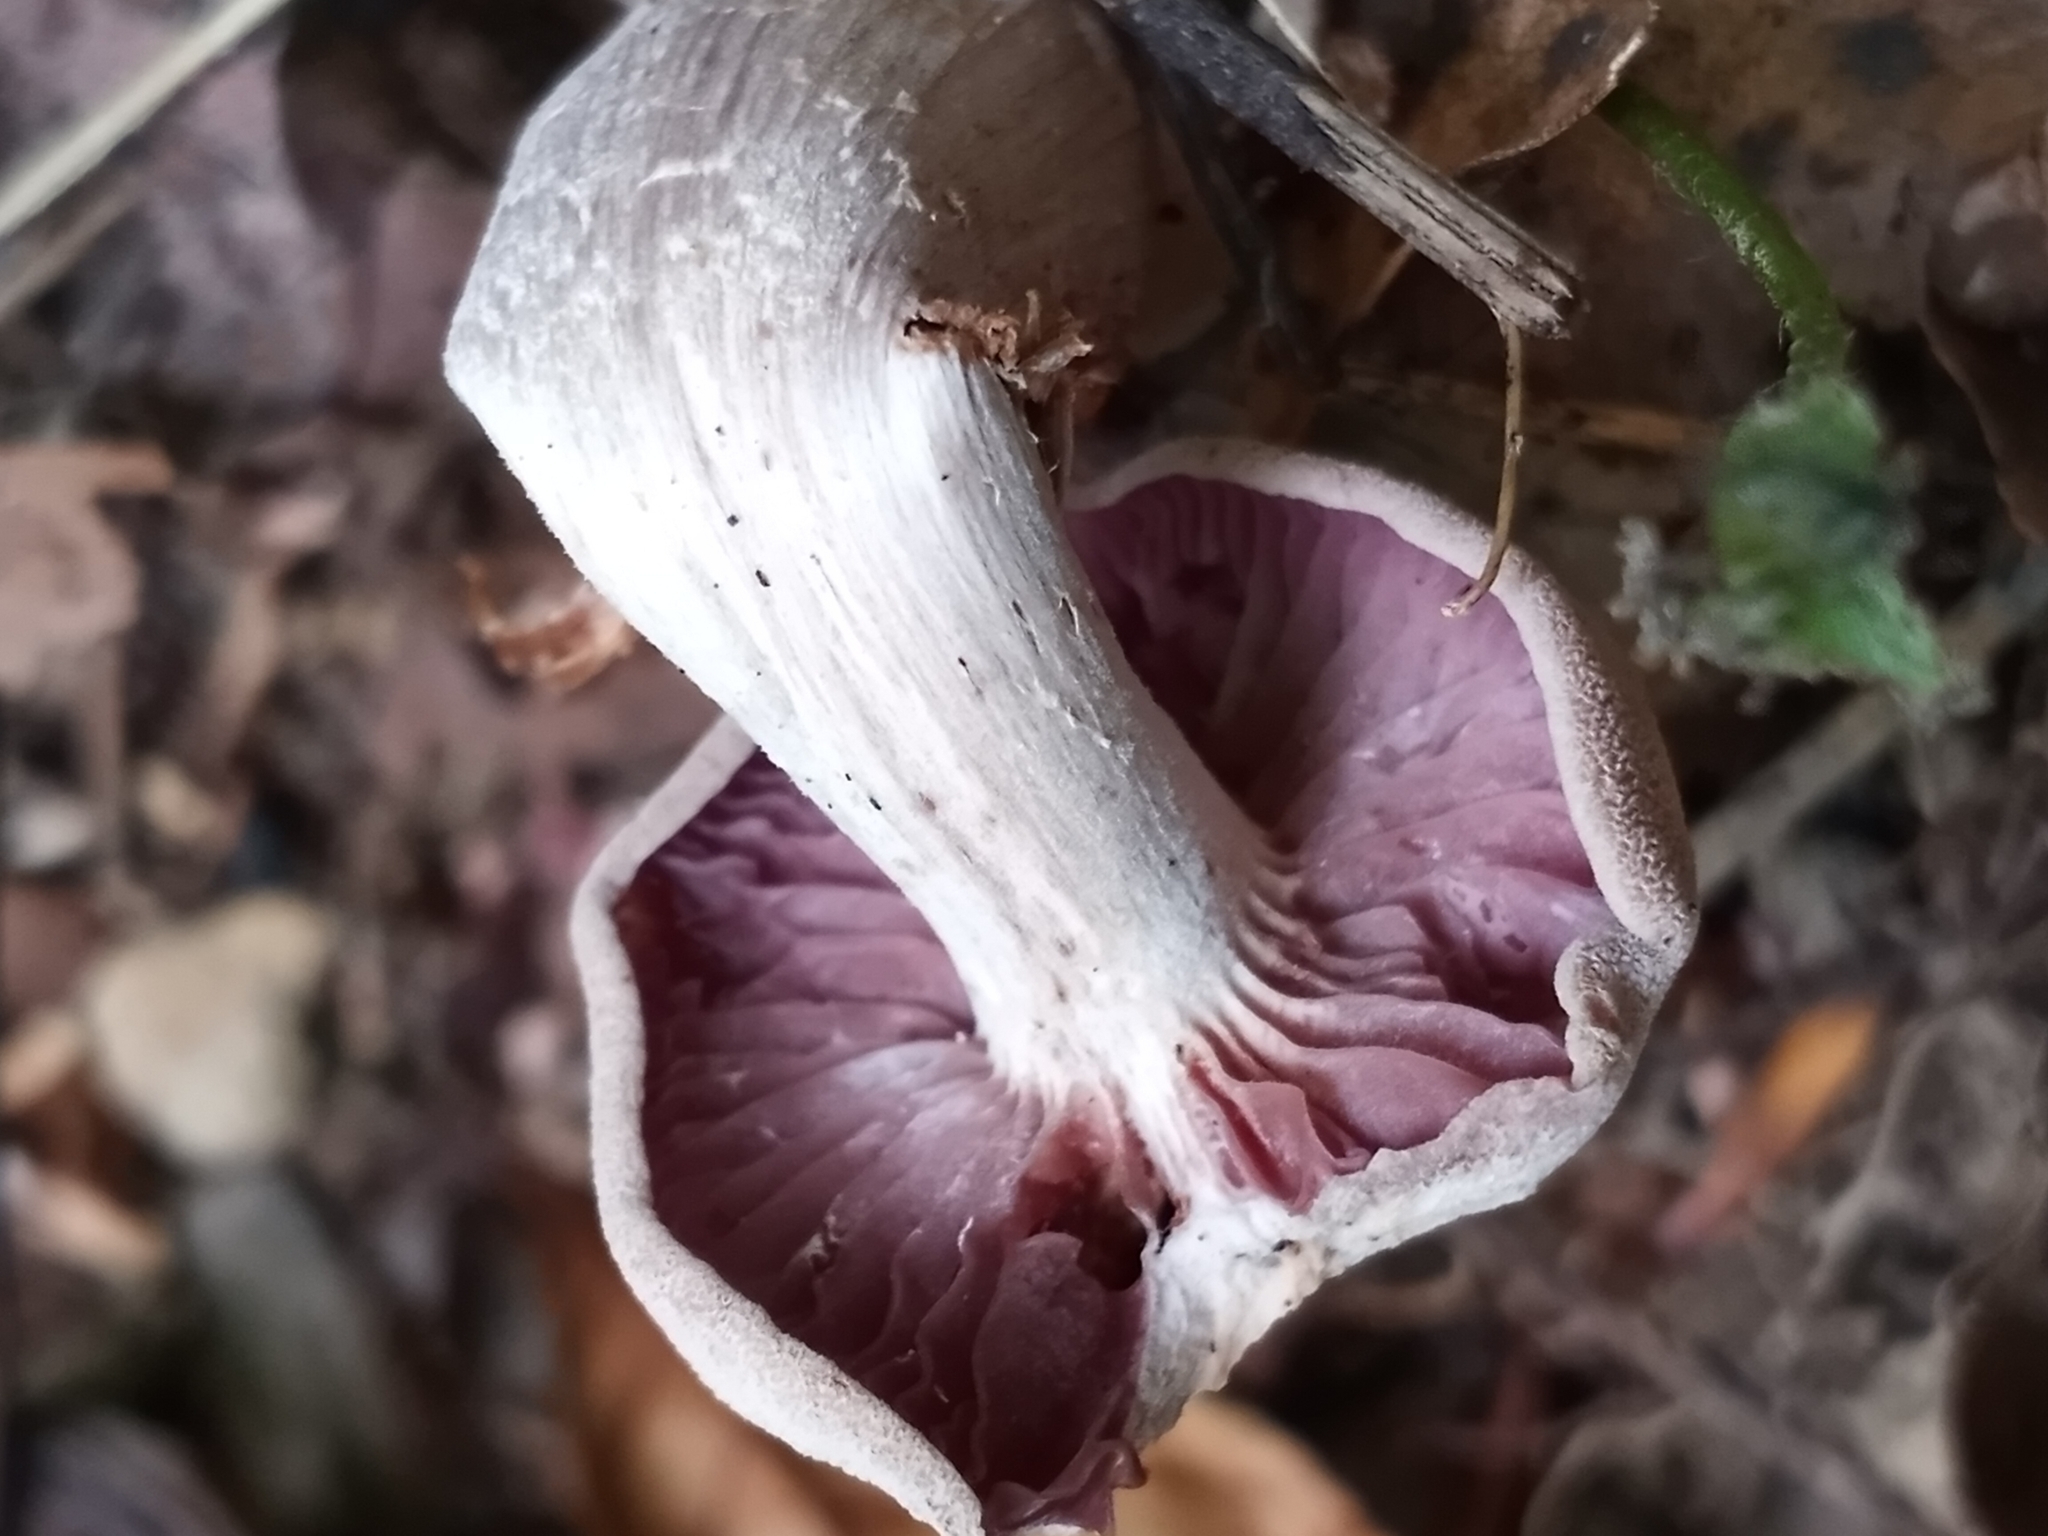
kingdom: Fungi
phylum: Basidiomycota
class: Agaricomycetes
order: Agaricales
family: Hydnangiaceae
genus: Laccaria
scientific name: Laccaria ochropurpurea
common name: Purple laccaria
